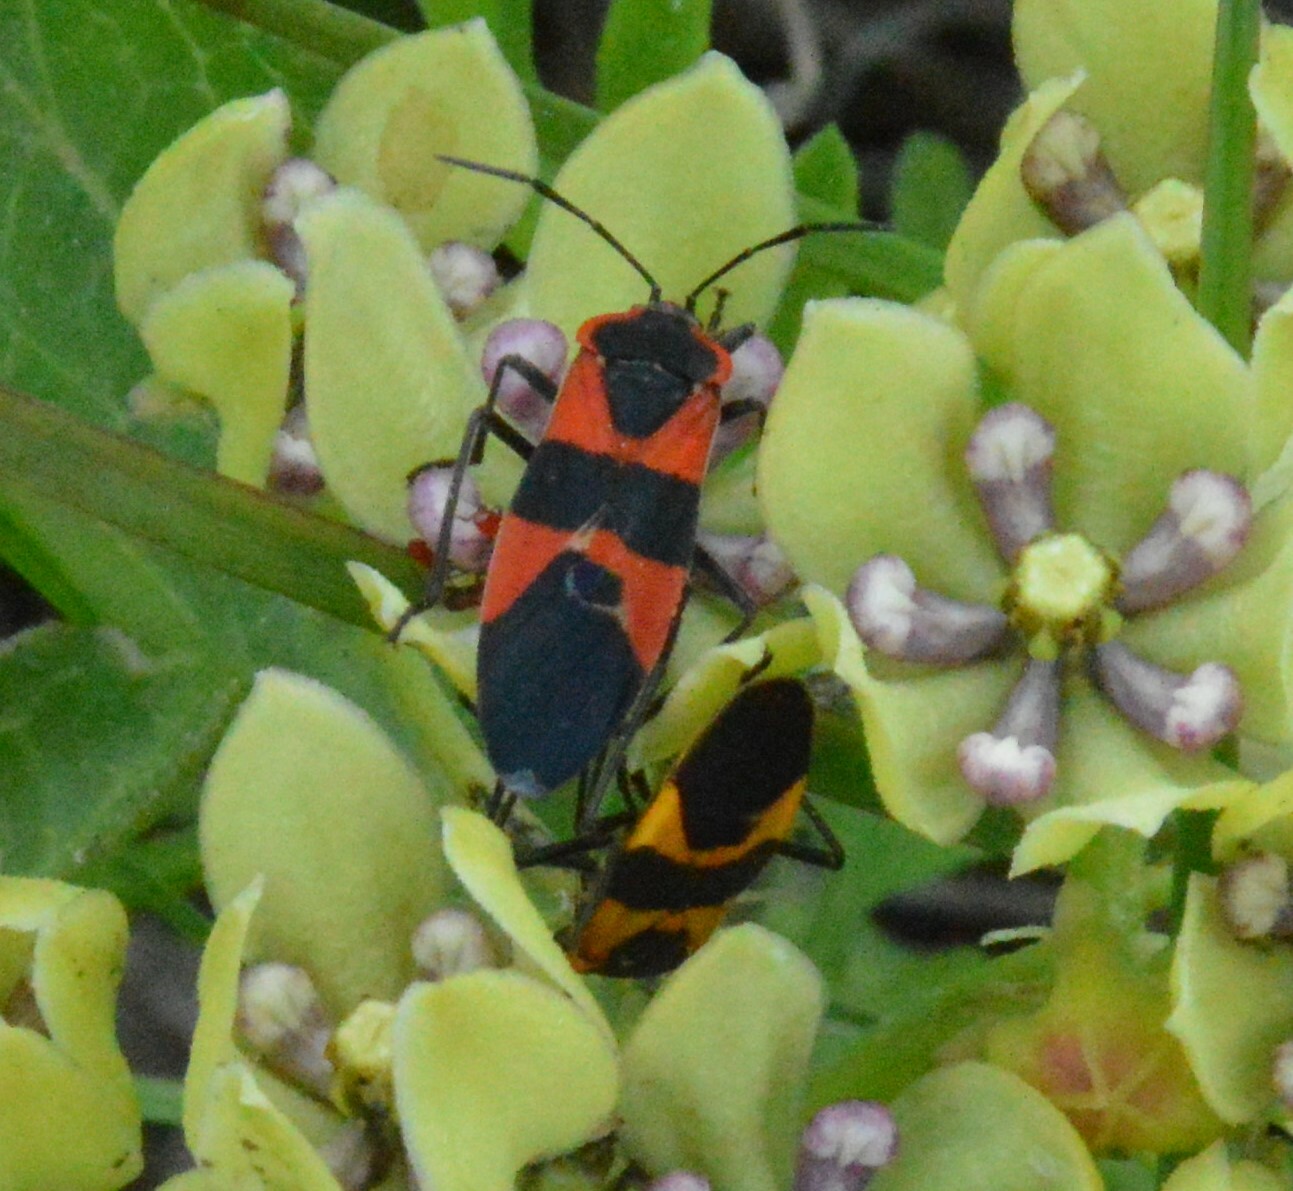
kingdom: Animalia
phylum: Arthropoda
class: Insecta
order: Hemiptera
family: Lygaeidae
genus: Oncopeltus
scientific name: Oncopeltus fasciatus
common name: Large milkweed bug
